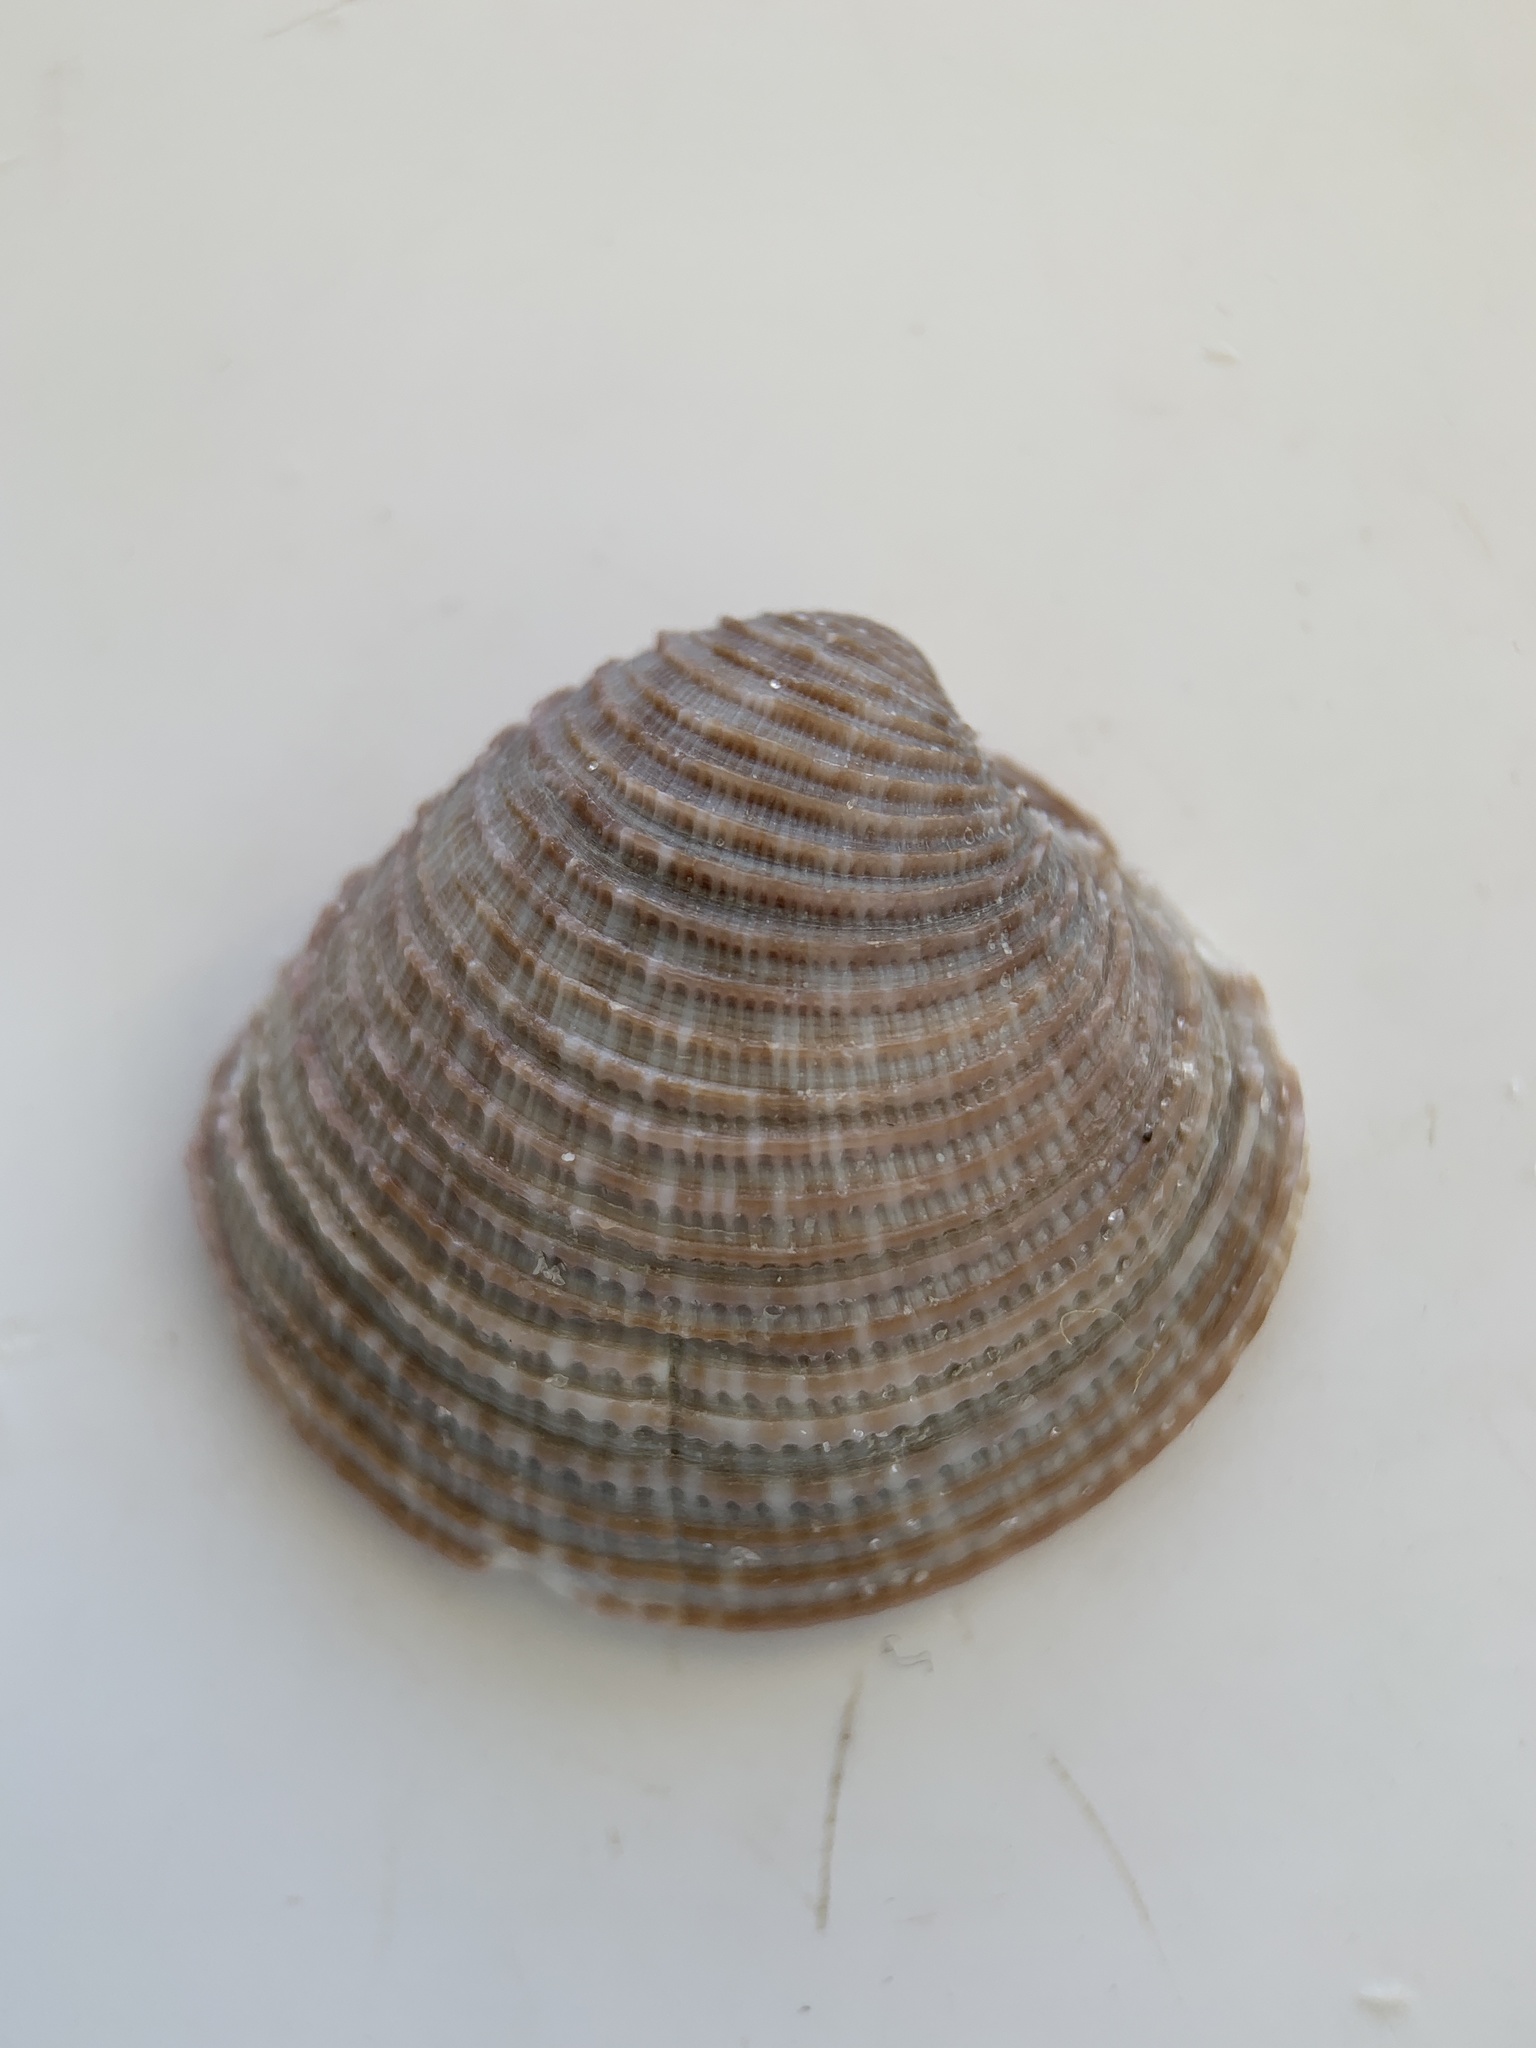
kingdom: Animalia
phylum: Mollusca
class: Bivalvia
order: Venerida
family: Veneridae
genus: Chionopsis
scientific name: Chionopsis intapurpurea
